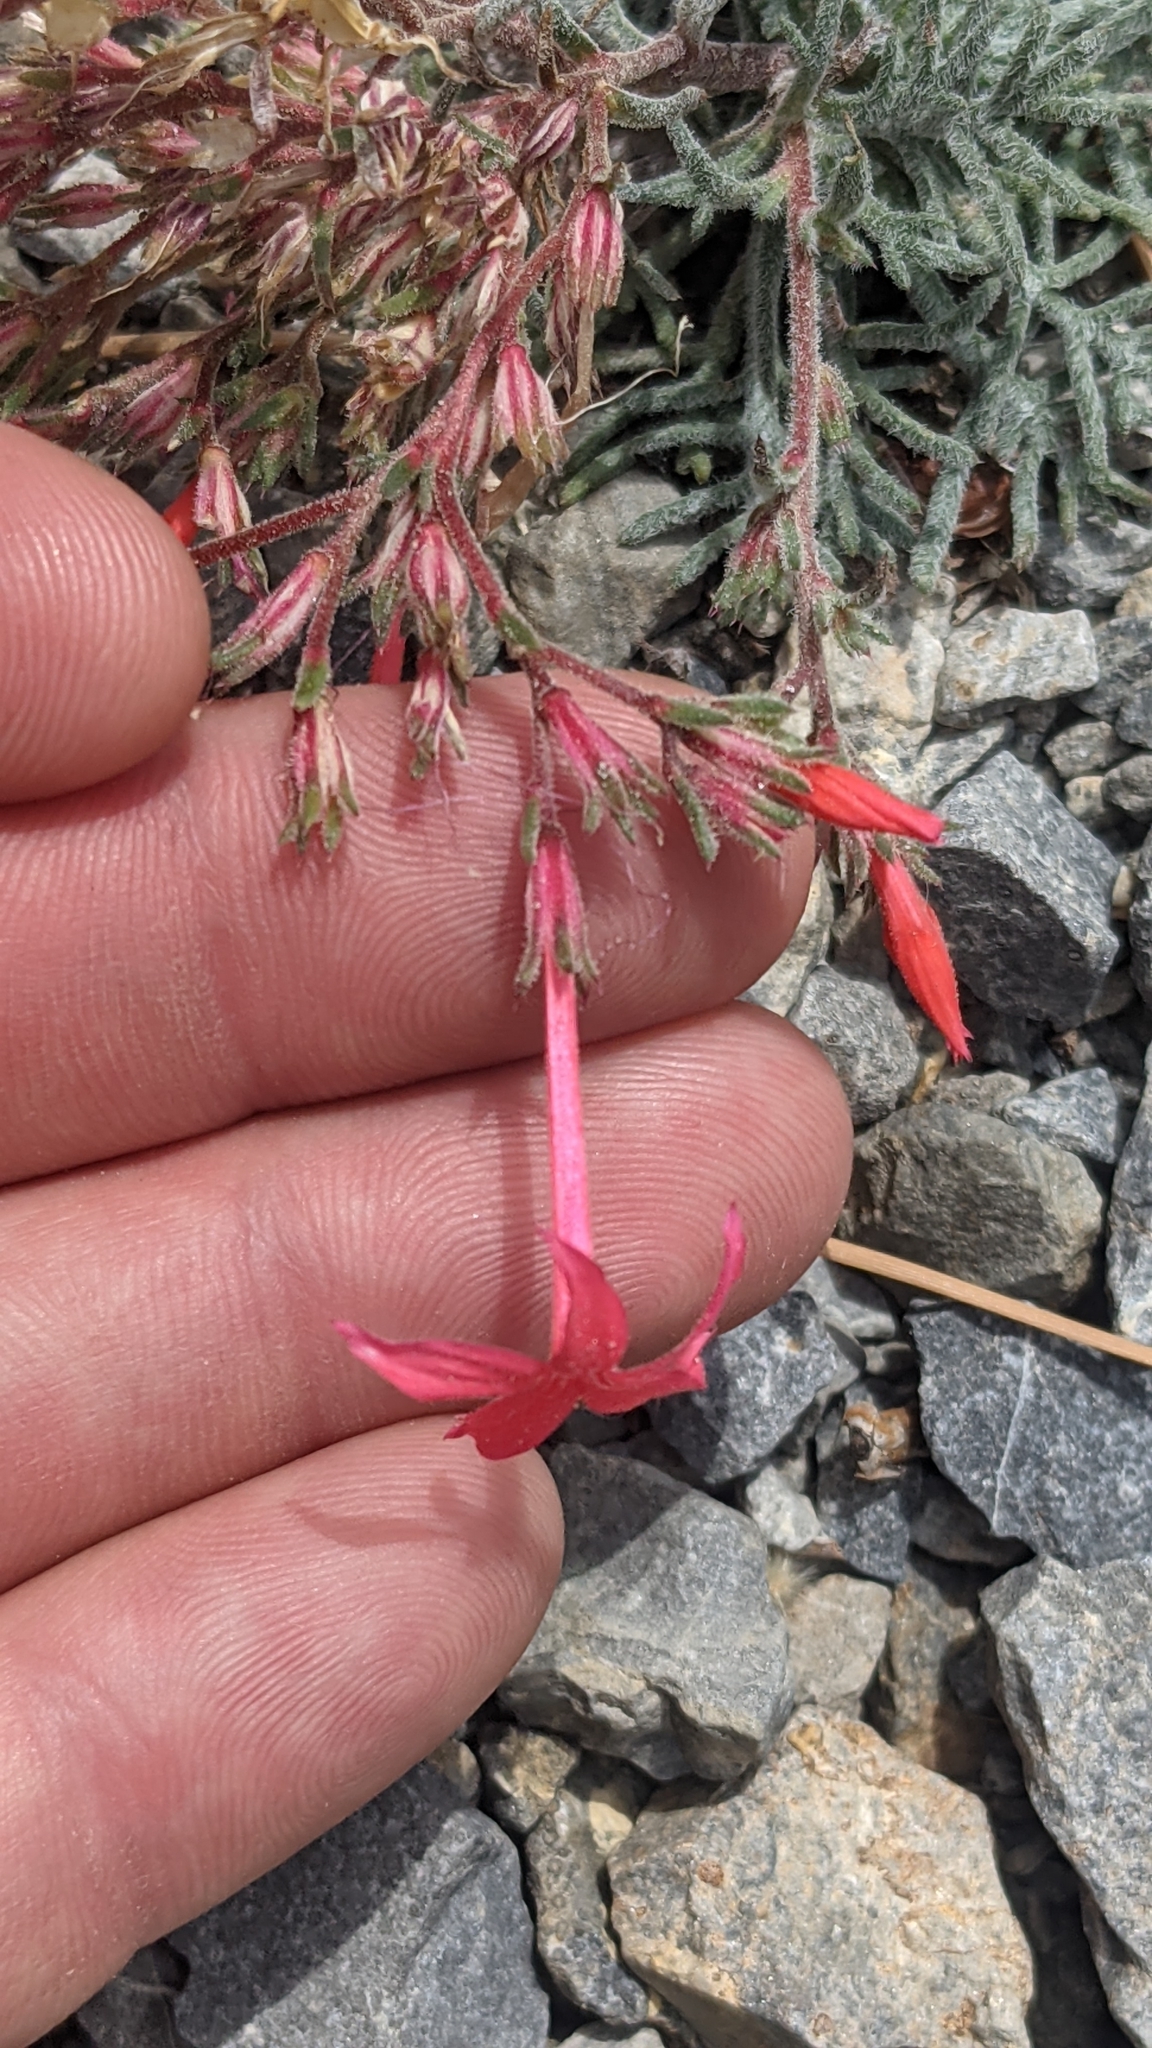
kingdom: Plantae
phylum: Tracheophyta
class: Magnoliopsida
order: Ericales
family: Polemoniaceae
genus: Ipomopsis
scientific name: Ipomopsis arizonica
